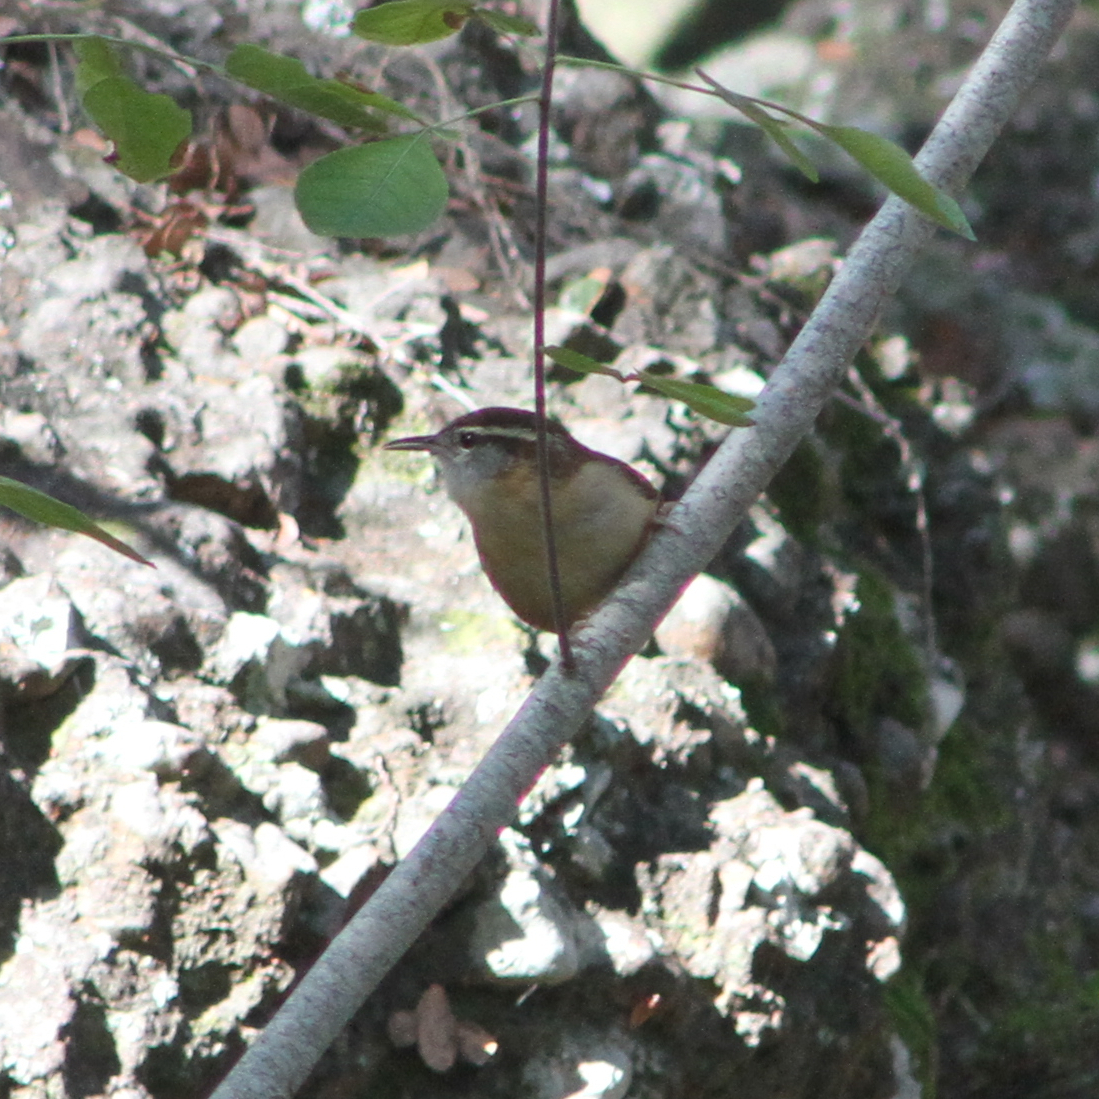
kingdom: Animalia
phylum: Chordata
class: Aves
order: Passeriformes
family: Troglodytidae
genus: Thryothorus
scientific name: Thryothorus ludovicianus
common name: Carolina wren
